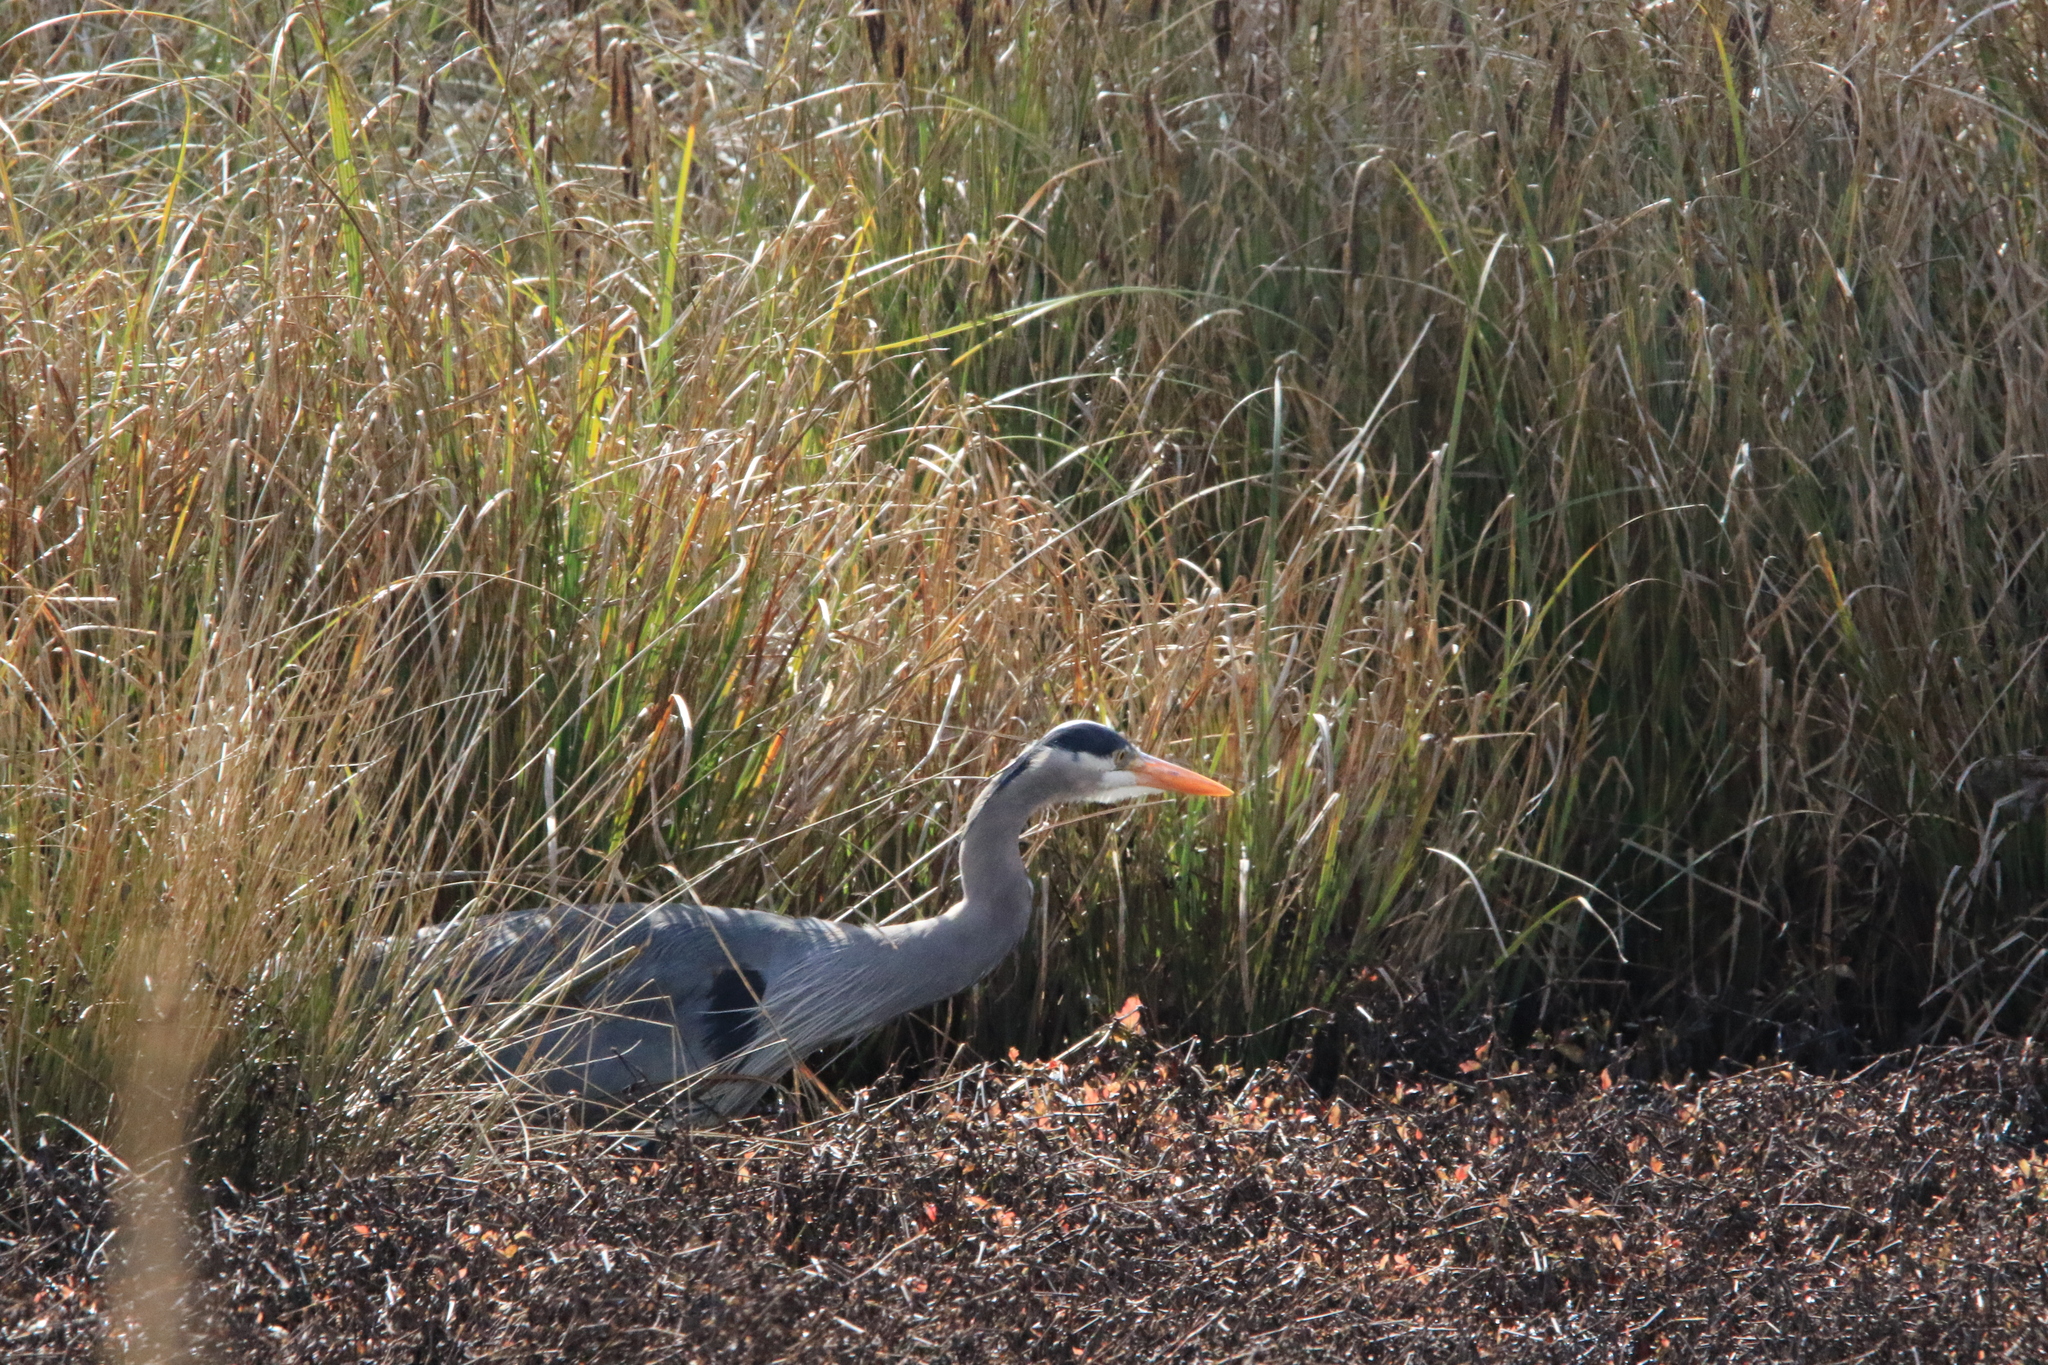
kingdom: Animalia
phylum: Chordata
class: Aves
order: Pelecaniformes
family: Ardeidae
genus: Ardea
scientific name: Ardea herodias
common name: Great blue heron
